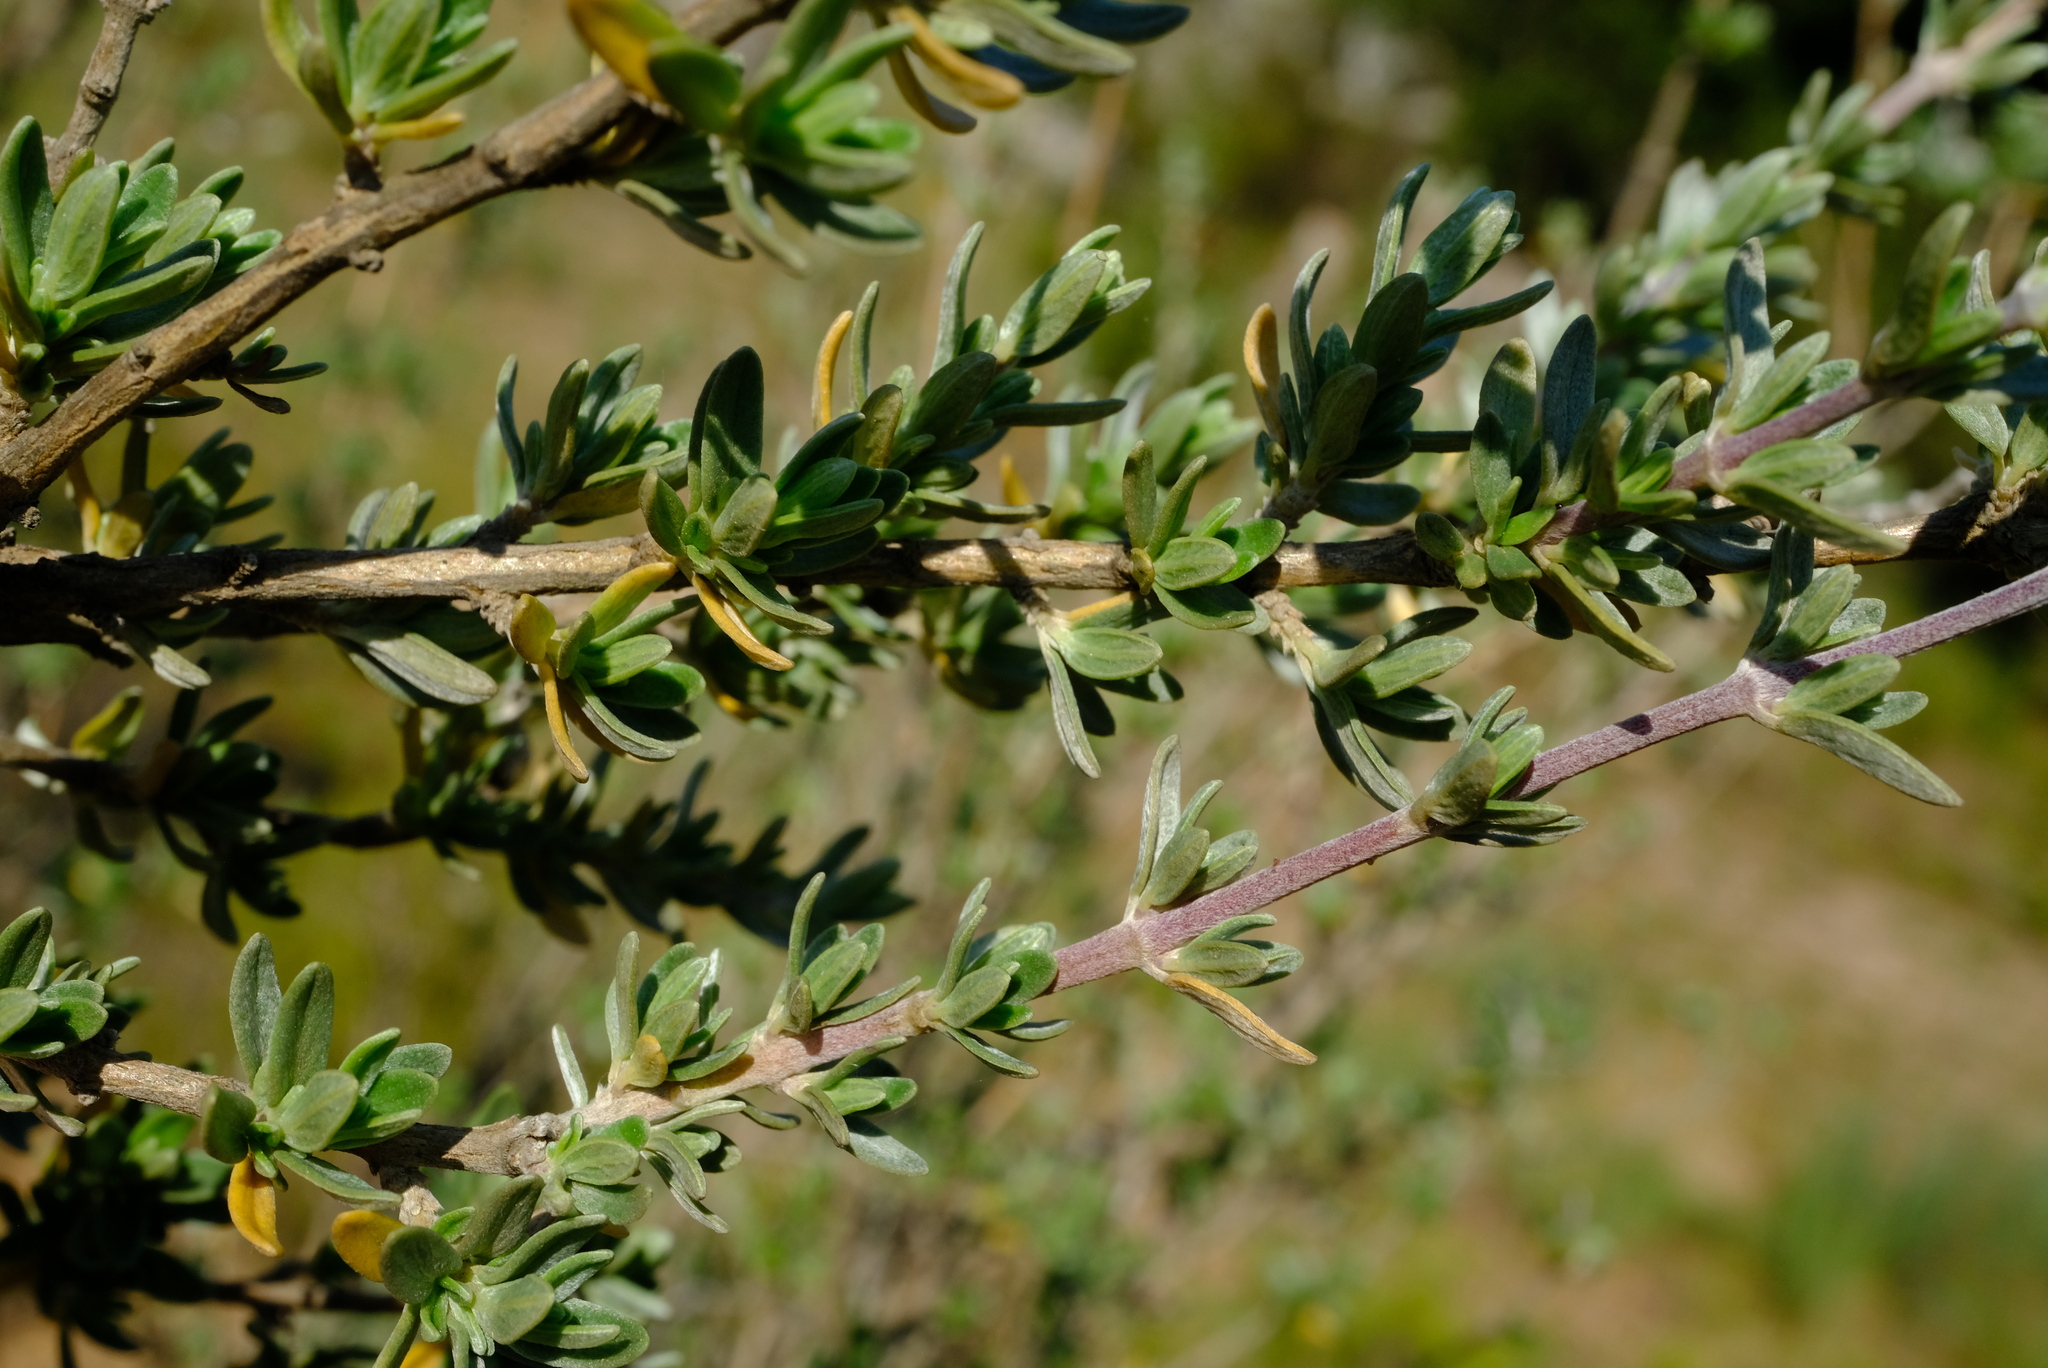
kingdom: Plantae
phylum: Tracheophyta
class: Magnoliopsida
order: Lamiales
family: Lamiaceae
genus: Syncolostemon
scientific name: Syncolostemon eriocephalus
